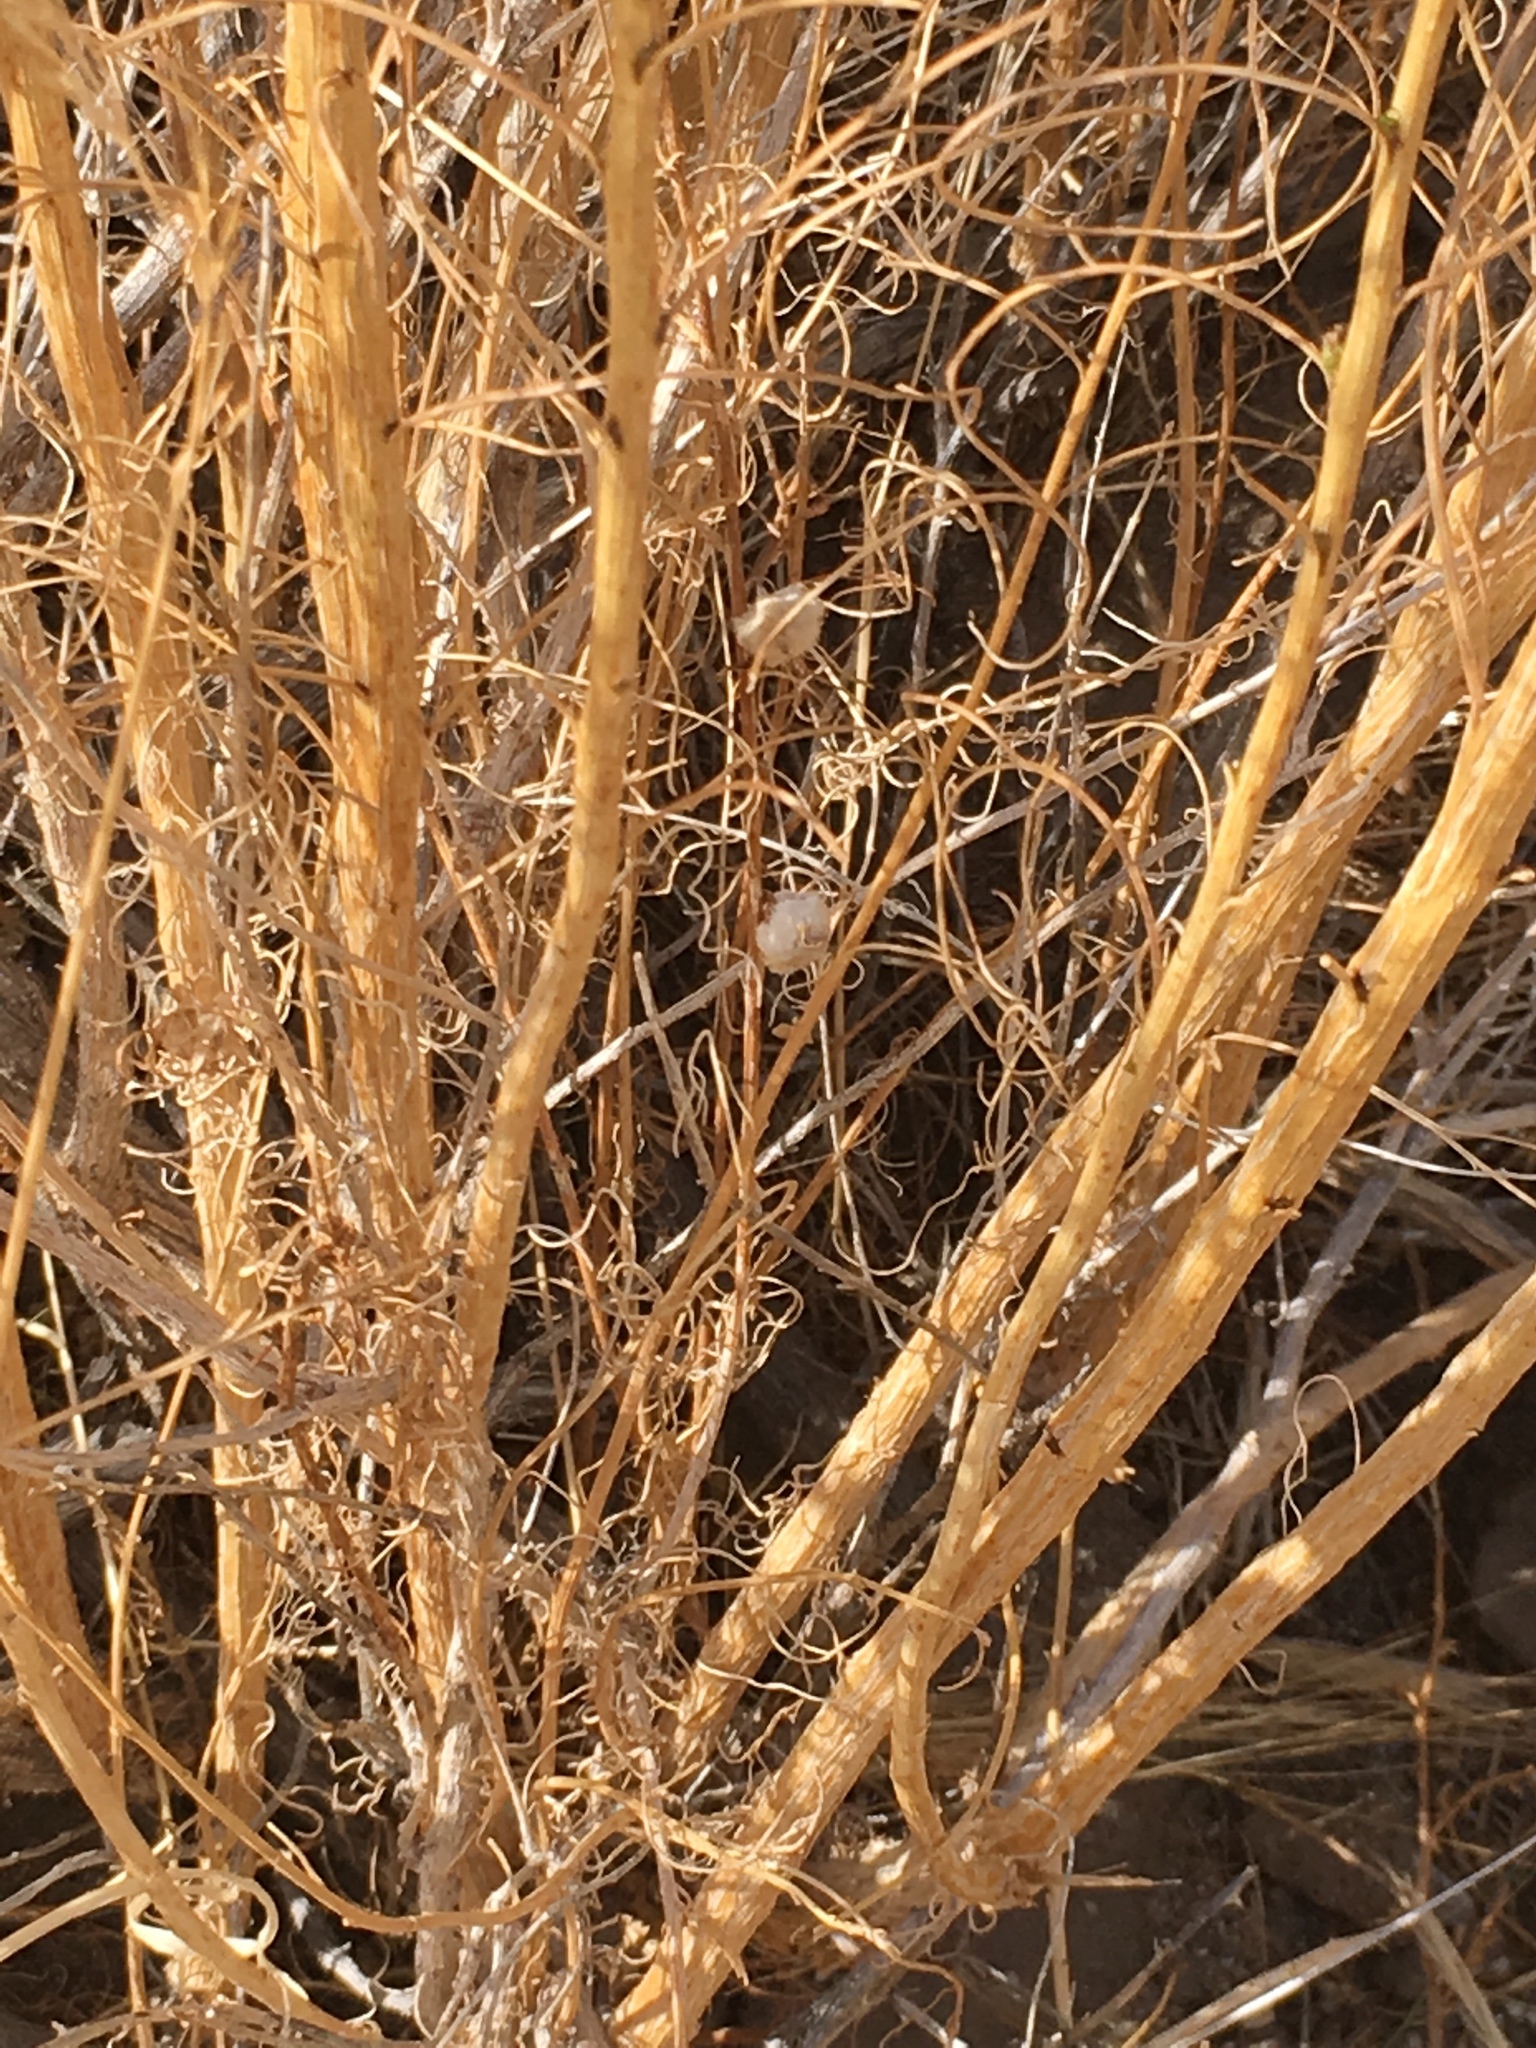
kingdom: Plantae
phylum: Tracheophyta
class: Magnoliopsida
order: Asterales
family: Asteraceae
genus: Ambrosia
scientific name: Ambrosia salsola
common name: Burrobrush
